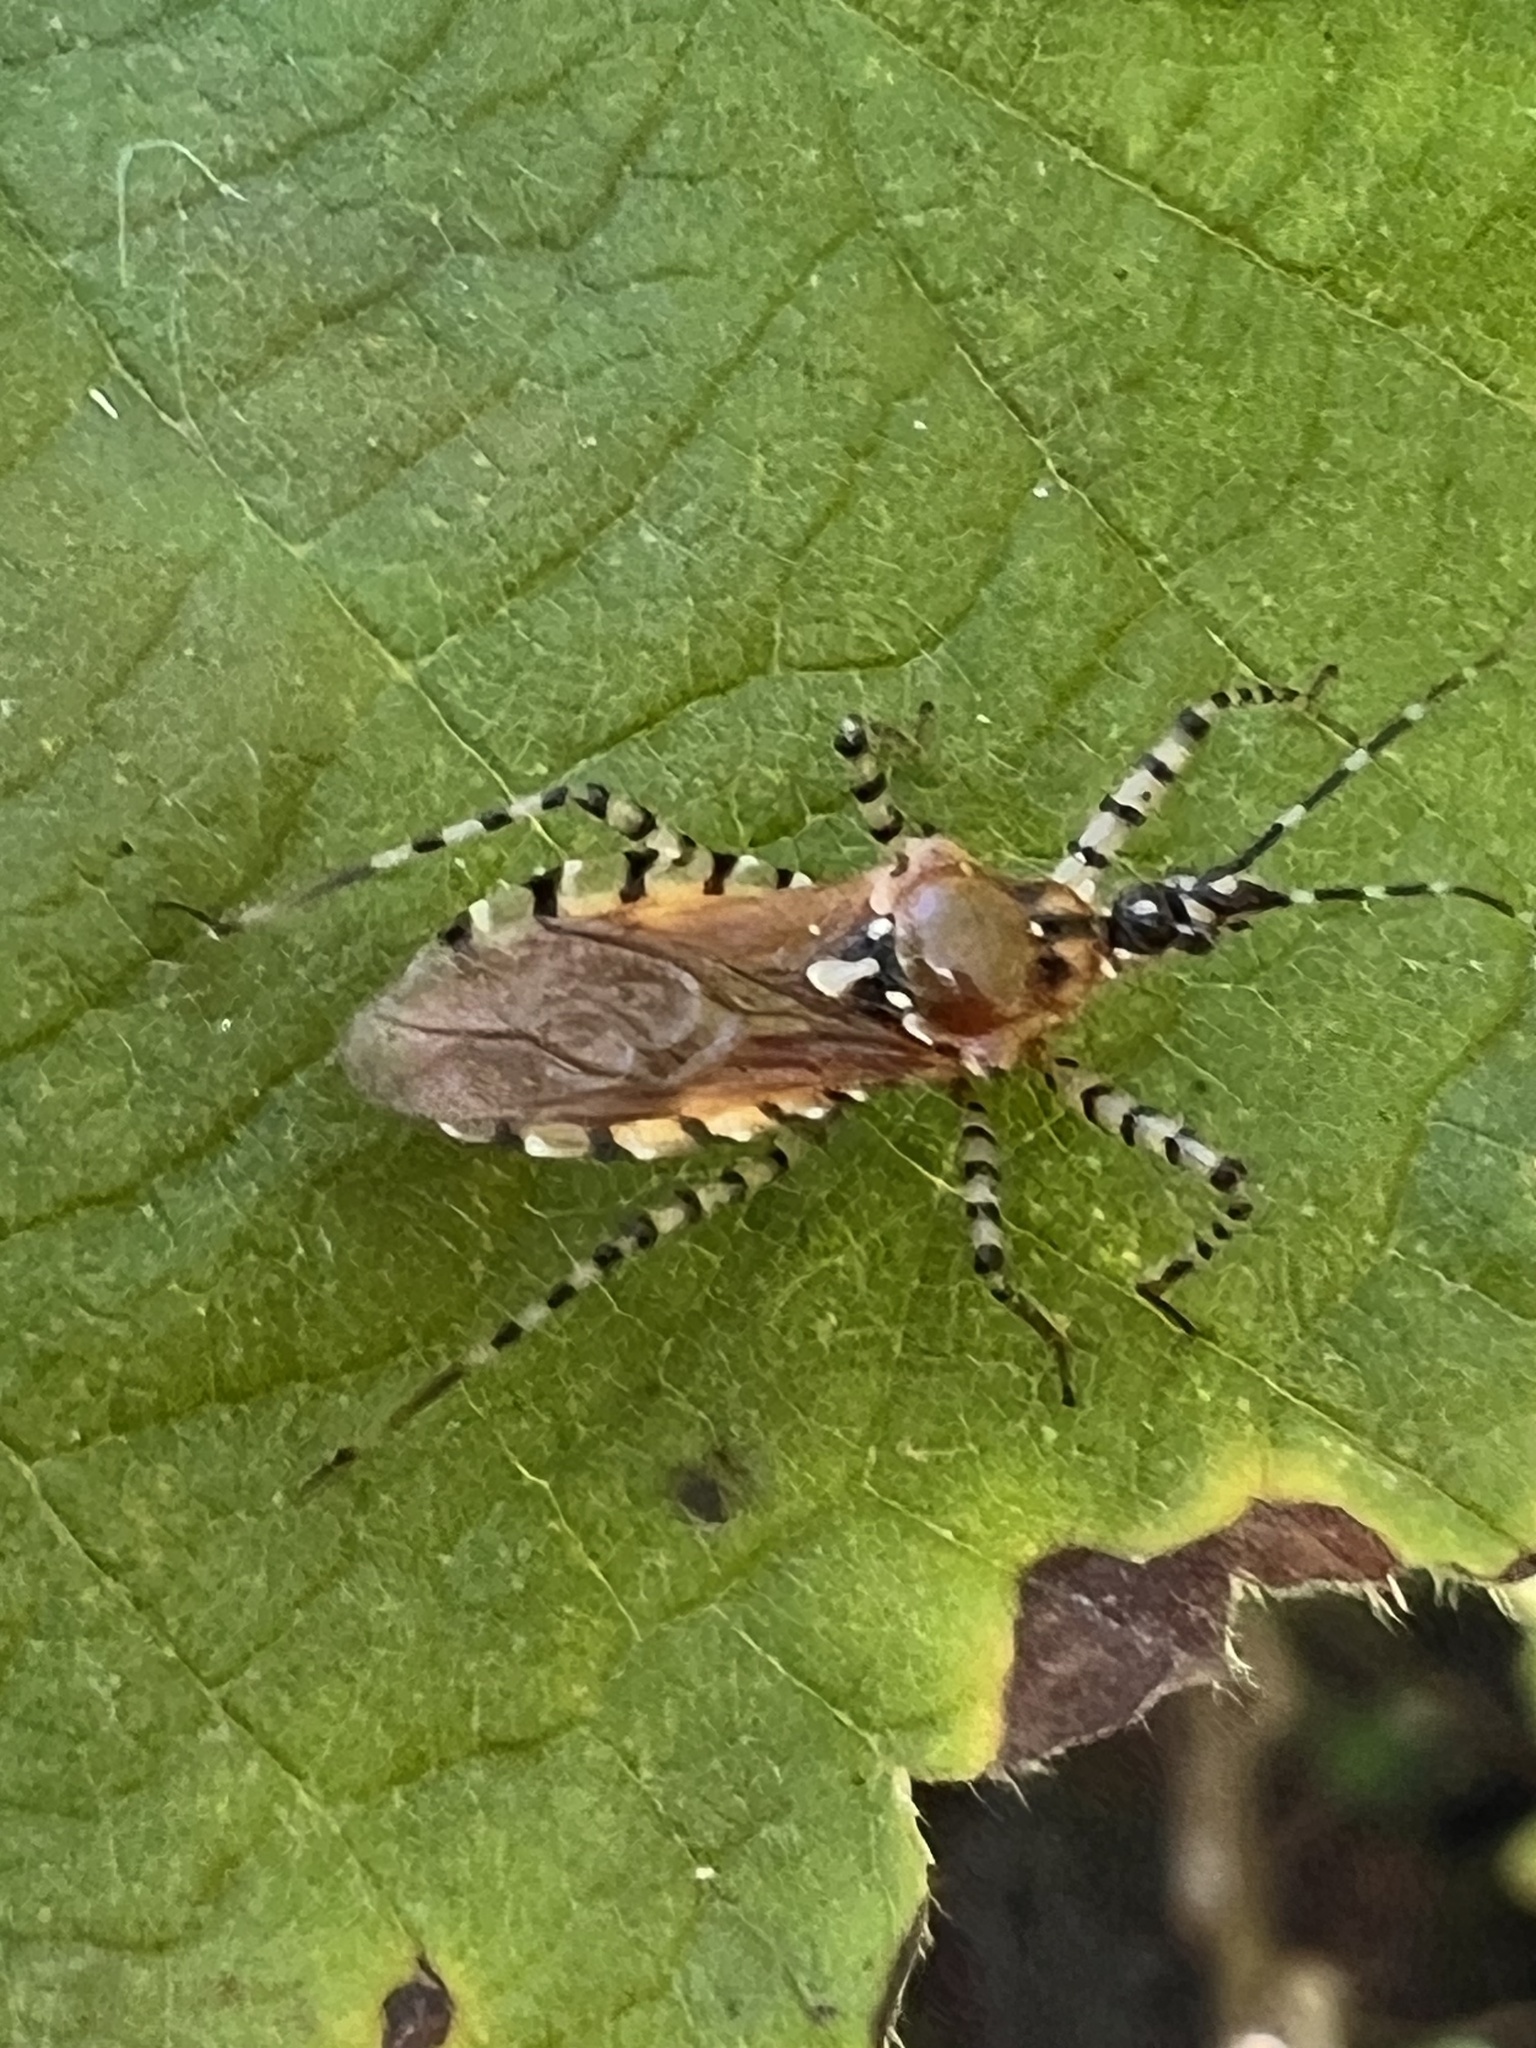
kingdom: Animalia
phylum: Arthropoda
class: Insecta
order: Hemiptera
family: Reduviidae
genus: Pselliopus
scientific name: Pselliopus cinctus
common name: Ringed assassin bug
